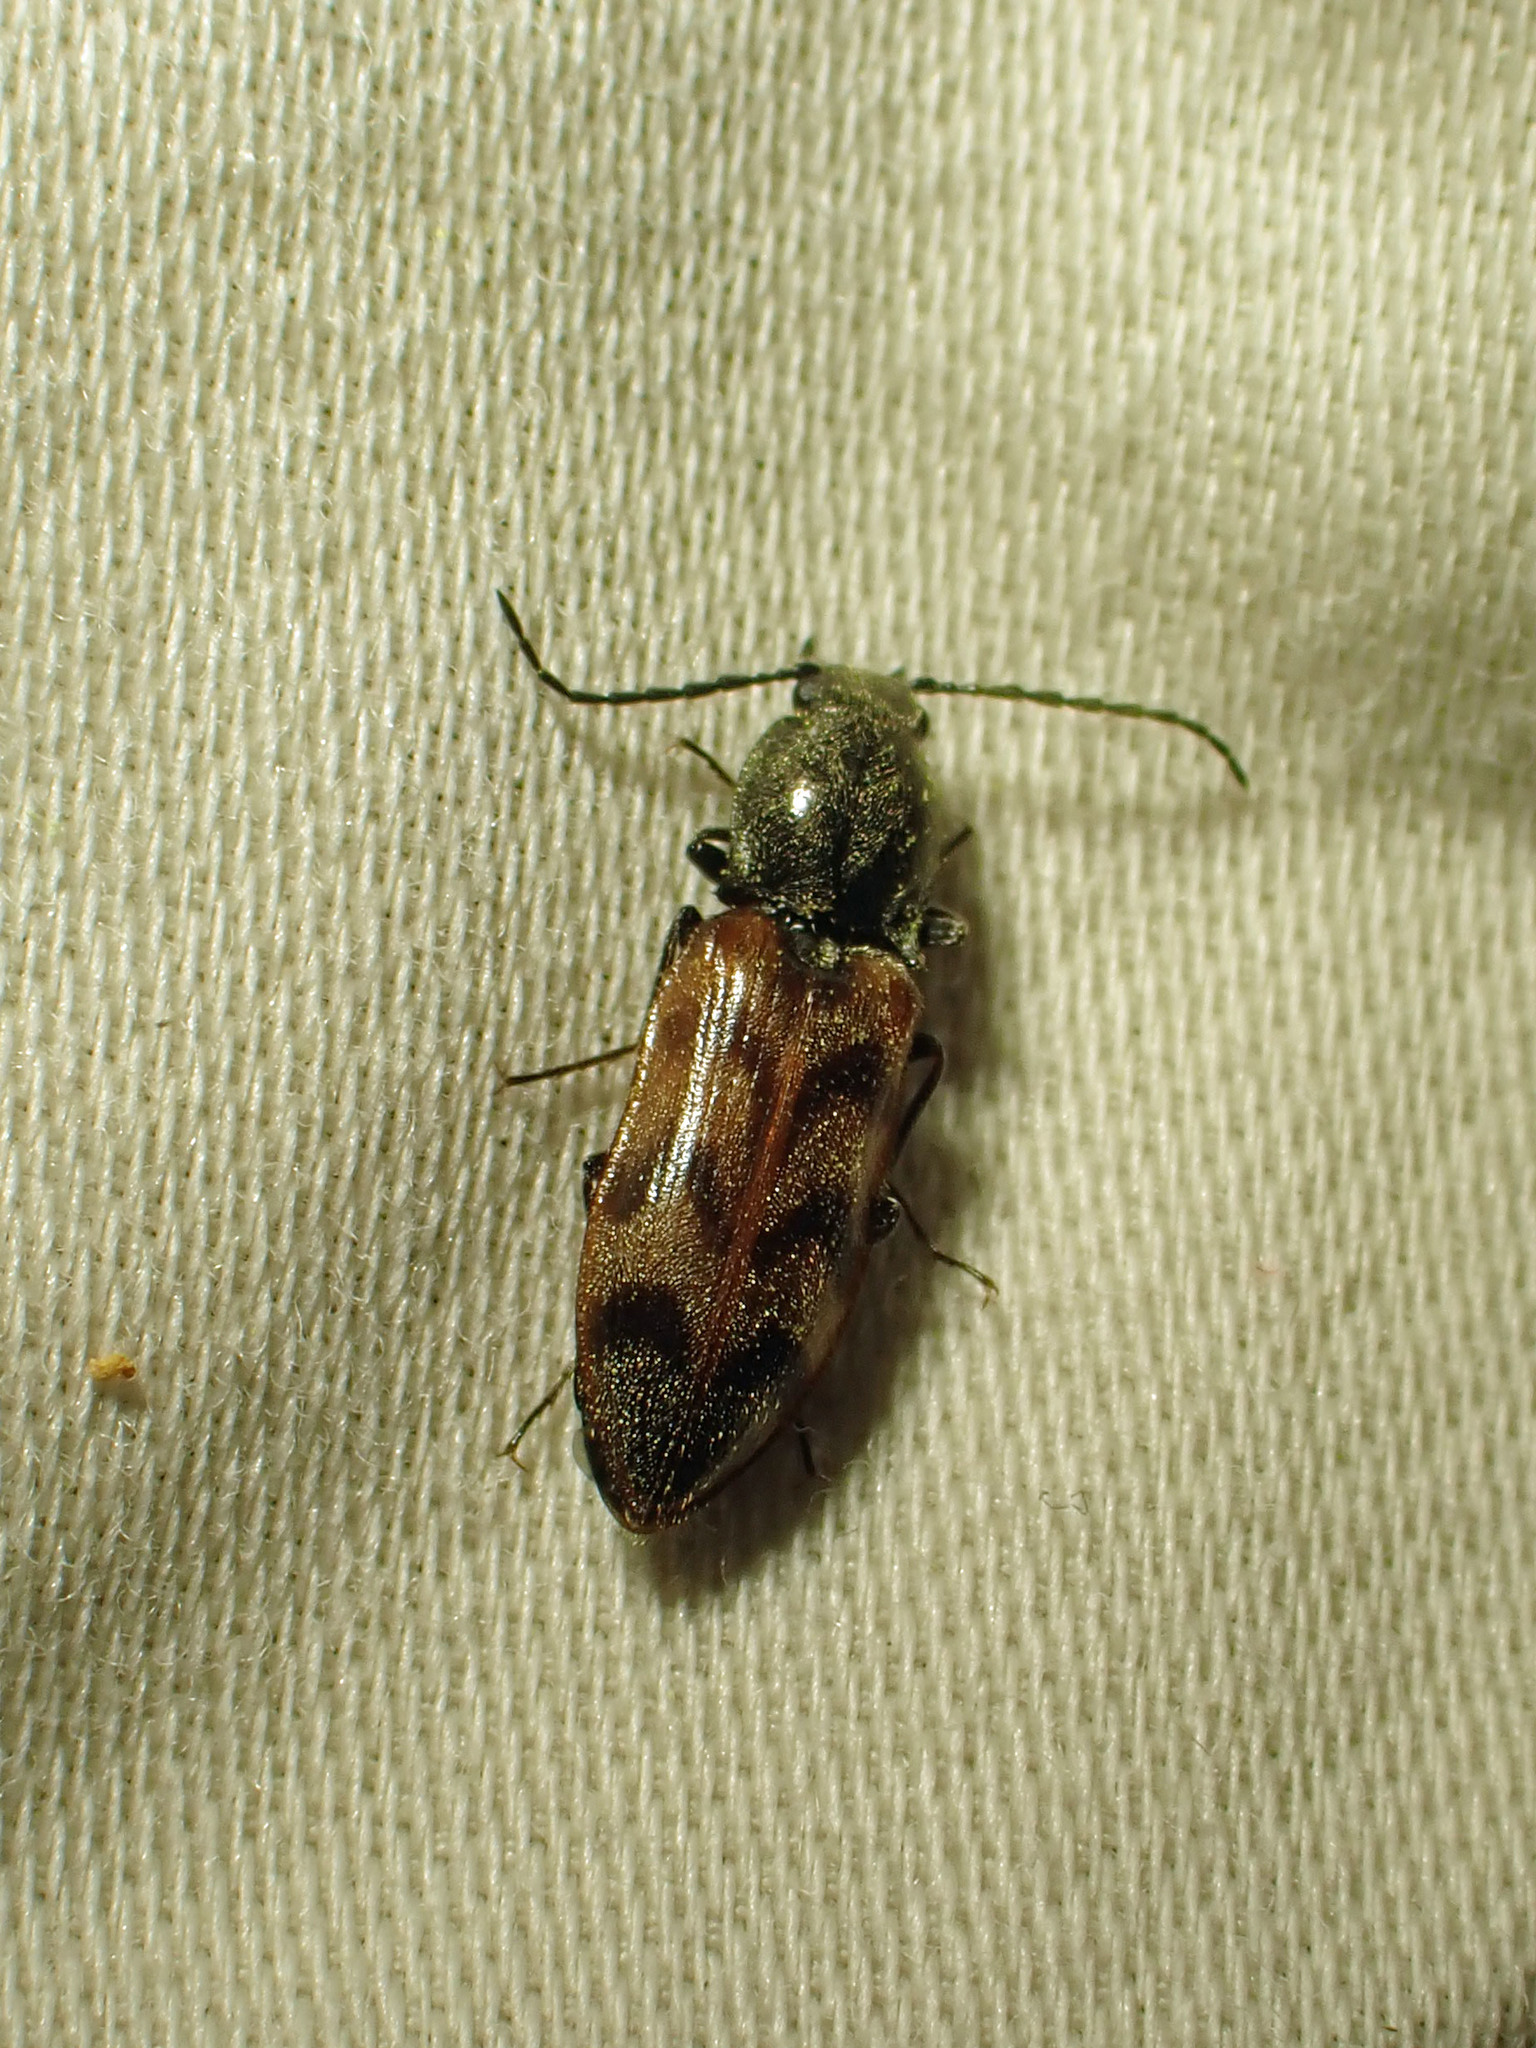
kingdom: Animalia
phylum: Arthropoda
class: Insecta
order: Coleoptera
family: Elateridae
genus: Pseudanostirus
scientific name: Pseudanostirus triundulatus
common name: Three-spotted click beetle
